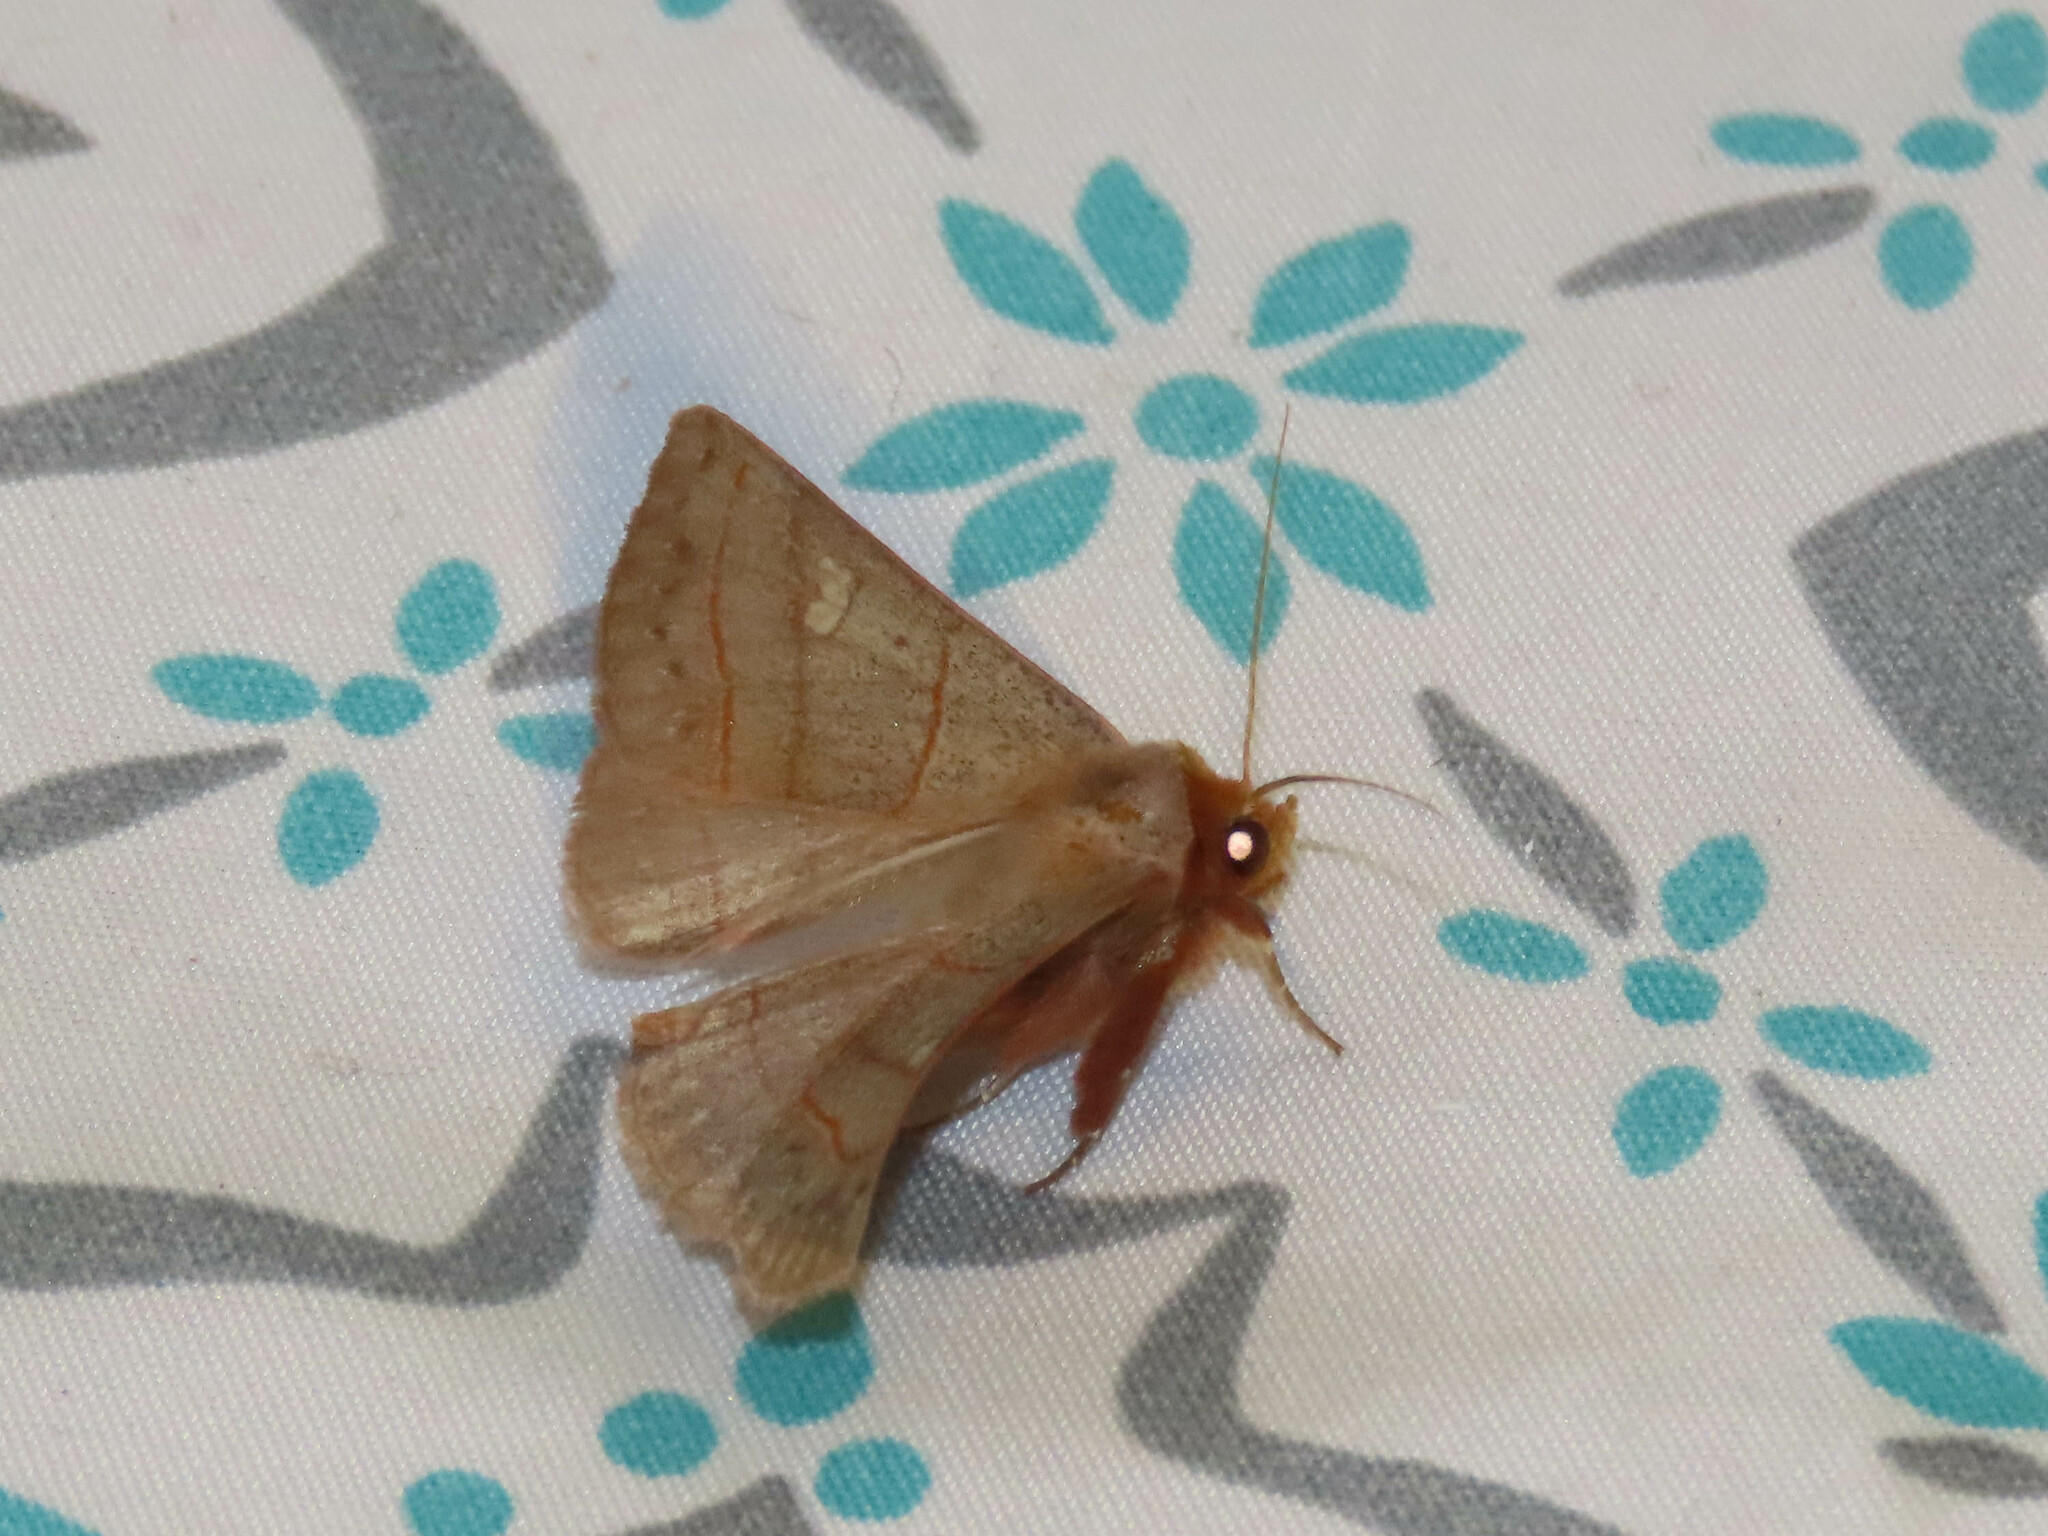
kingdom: Animalia
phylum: Arthropoda
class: Insecta
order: Lepidoptera
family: Erebidae
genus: Panopoda
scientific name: Panopoda rufimargo
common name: Red-lined panopoda moth
